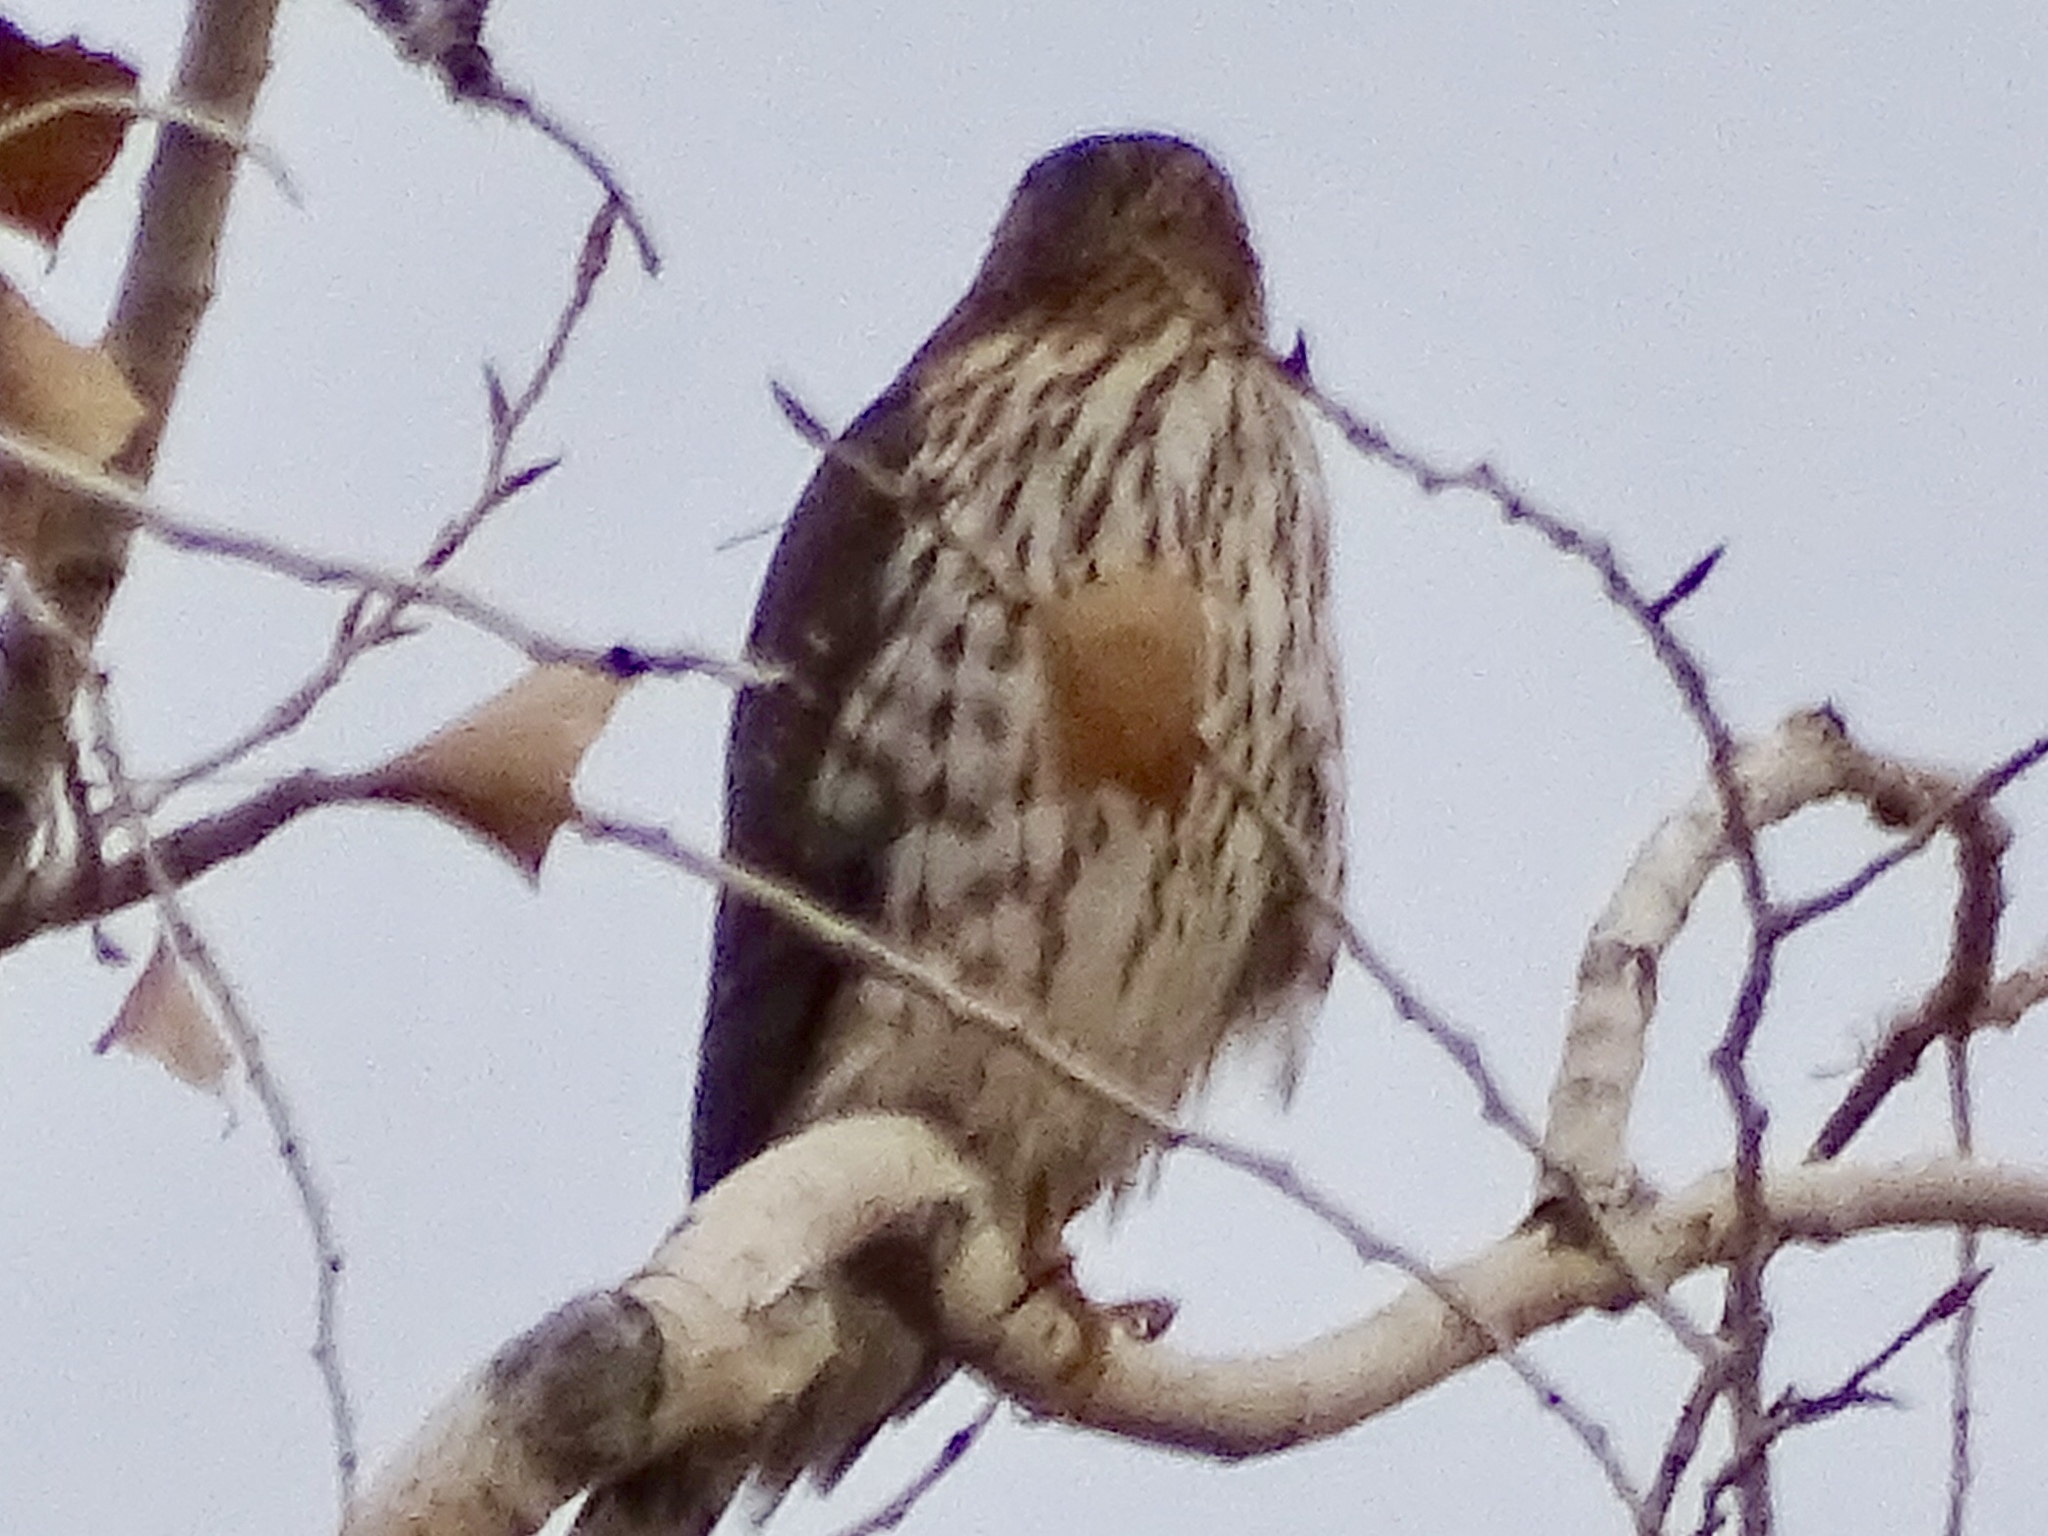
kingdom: Animalia
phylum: Chordata
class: Aves
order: Accipitriformes
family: Accipitridae
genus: Accipiter
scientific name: Accipiter cooperii
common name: Cooper's hawk
